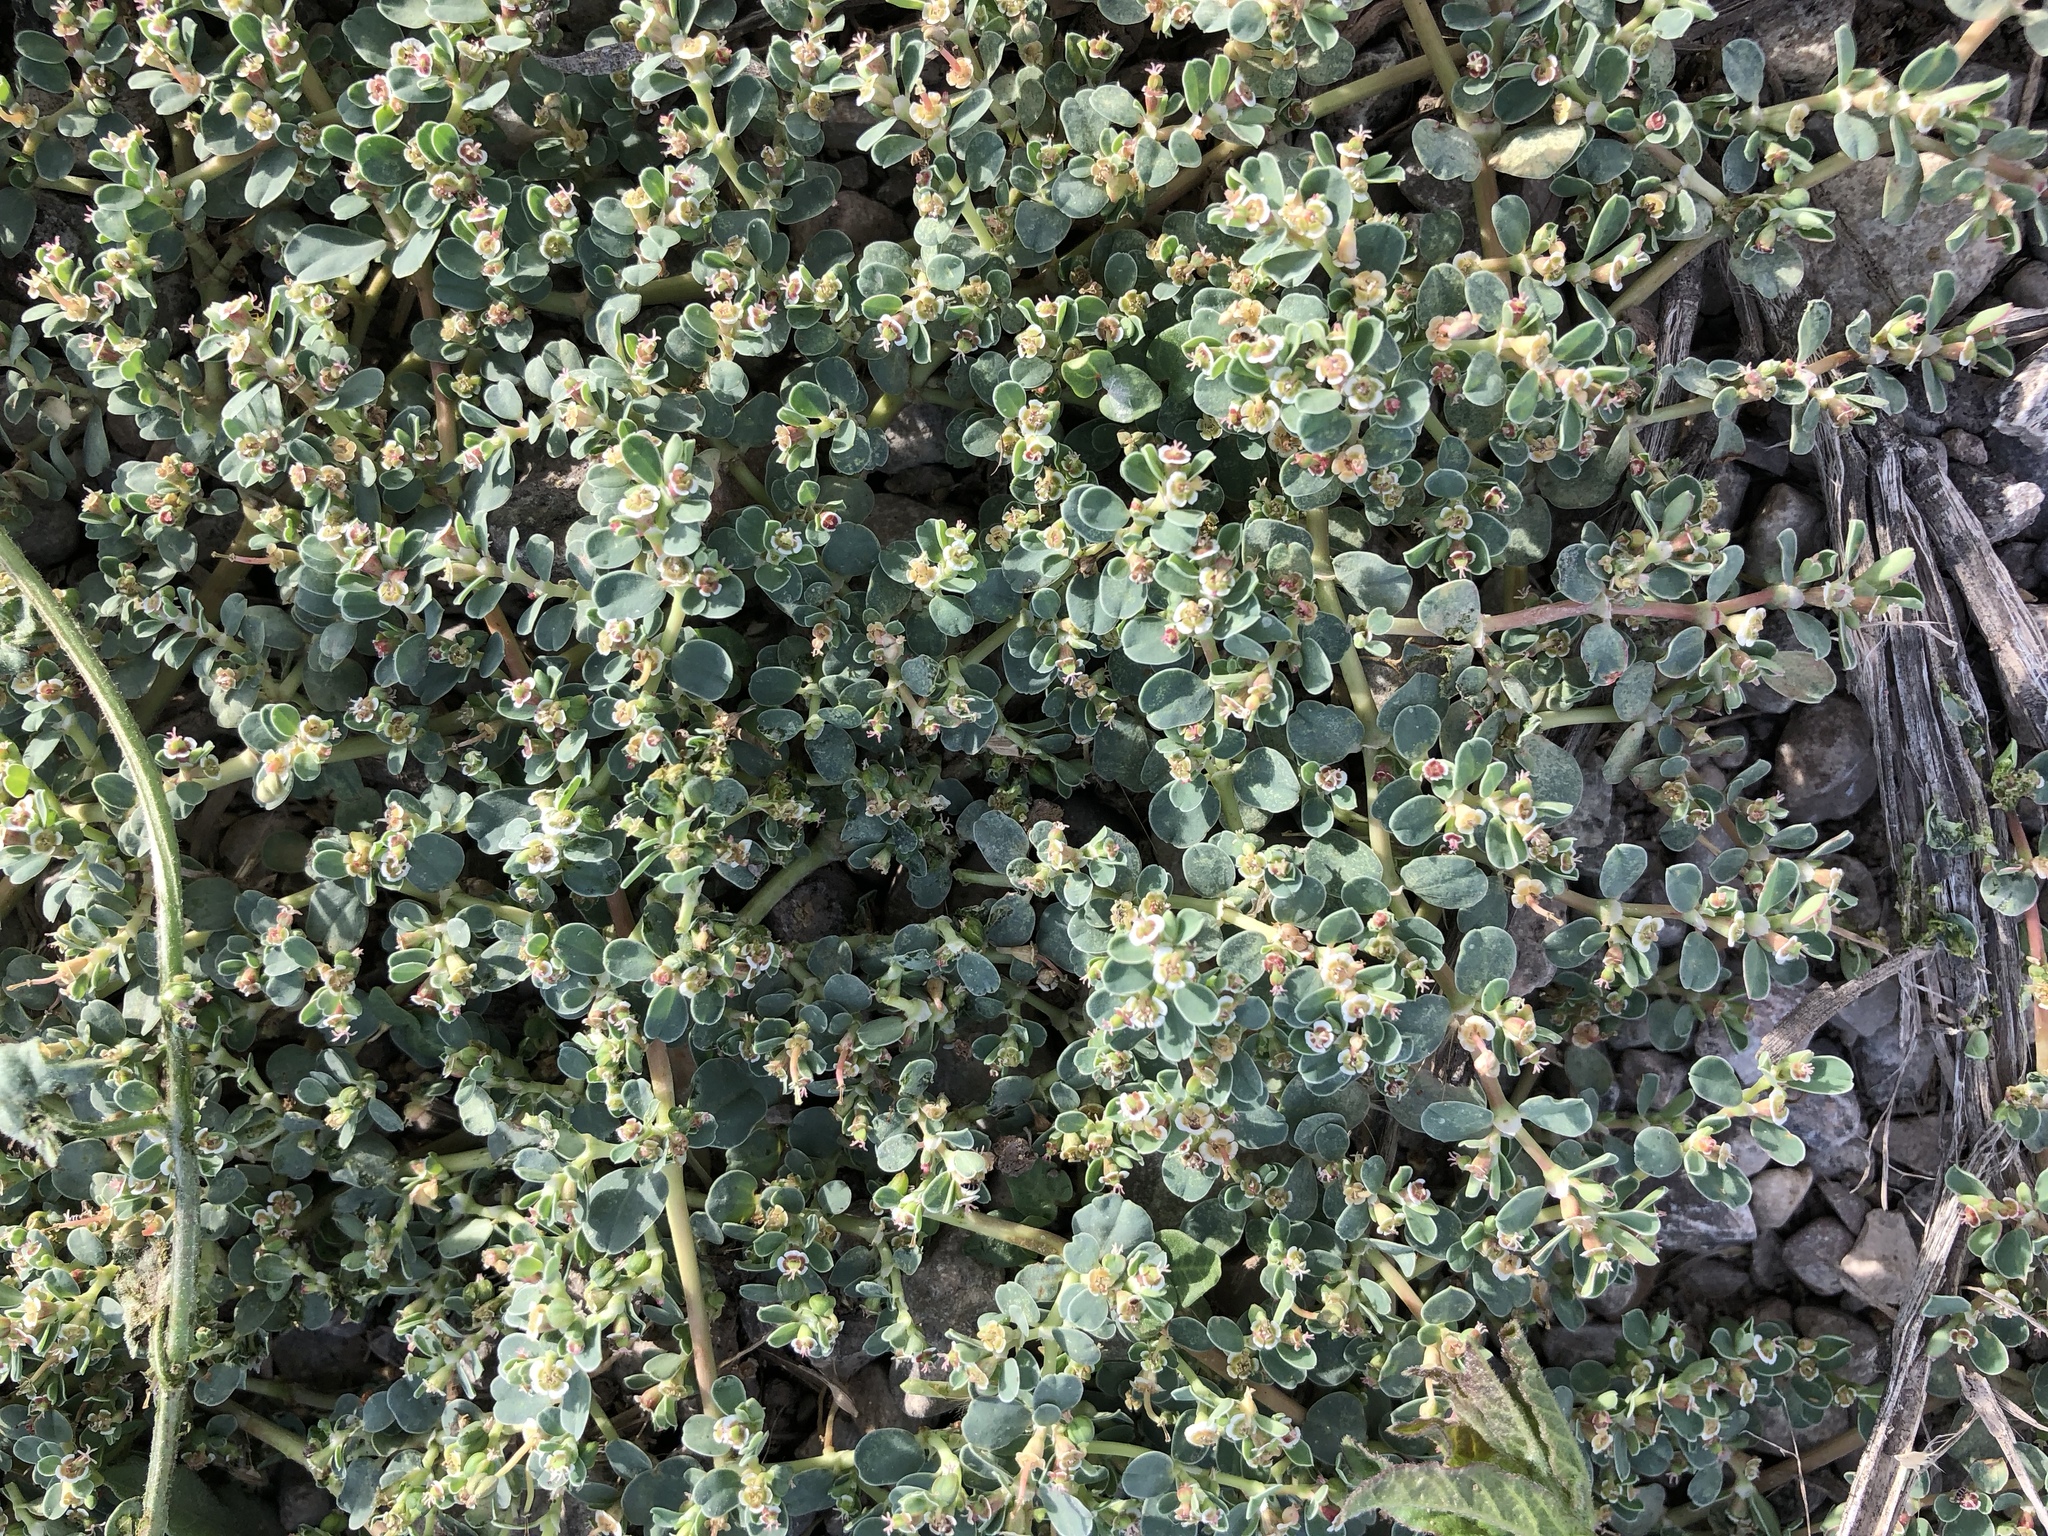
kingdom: Plantae
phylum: Tracheophyta
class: Magnoliopsida
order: Malpighiales
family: Euphorbiaceae
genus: Euphorbia
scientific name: Euphorbia albomarginata
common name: Whitemargin sandmat
